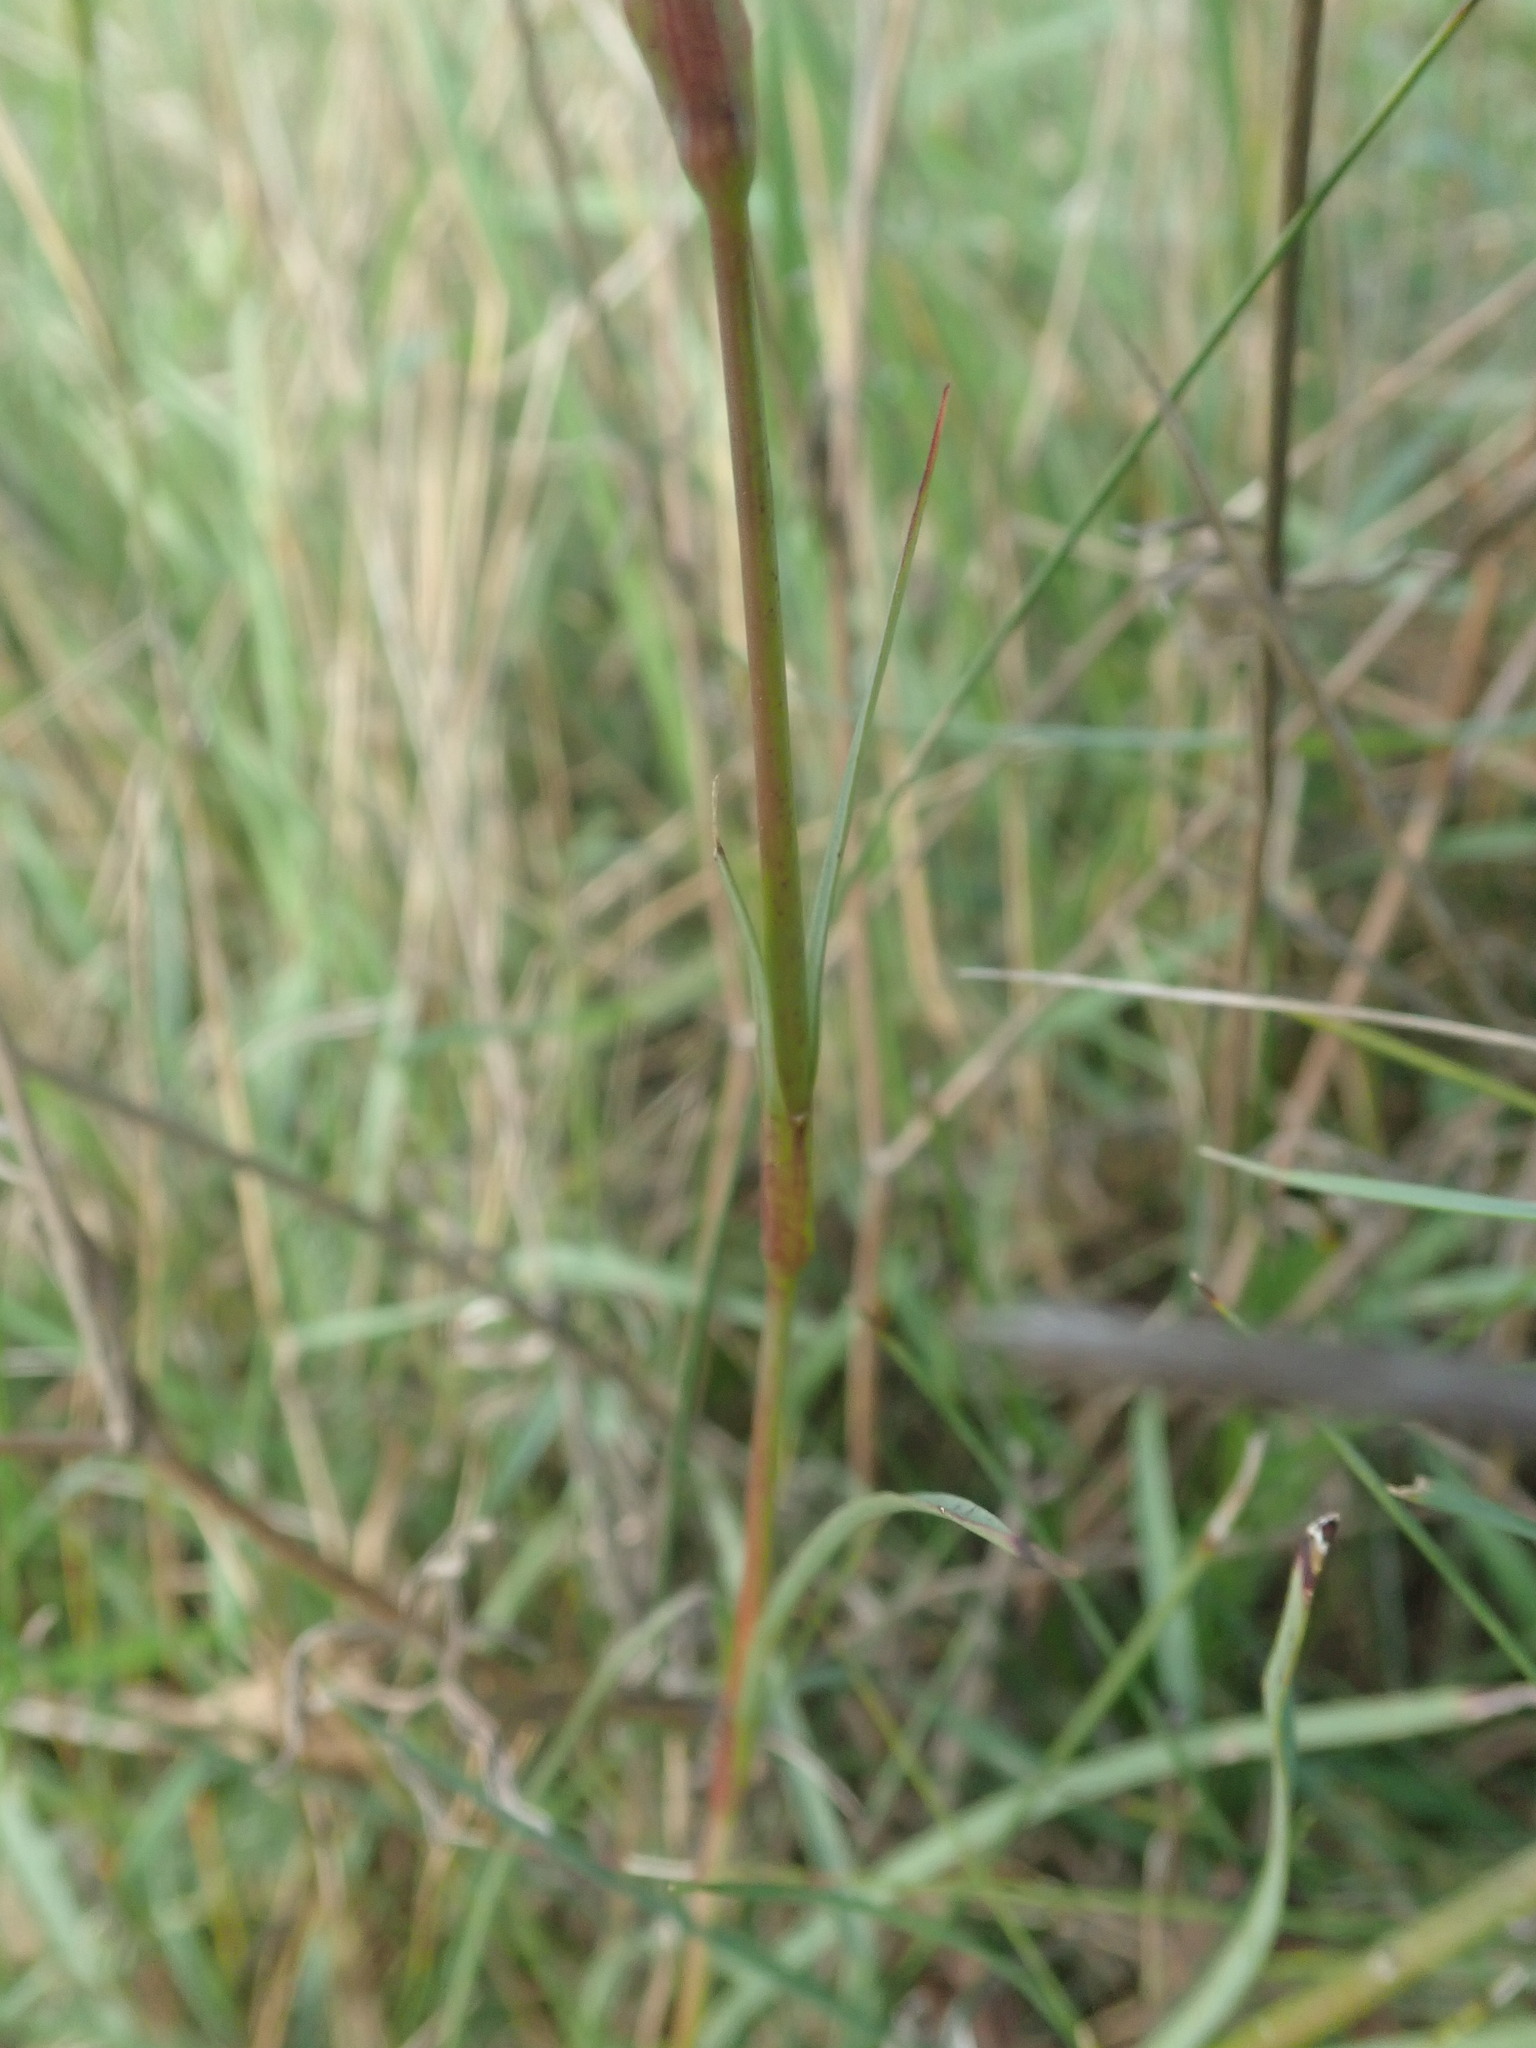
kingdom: Plantae
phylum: Tracheophyta
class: Magnoliopsida
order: Caryophyllales
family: Caryophyllaceae
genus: Dianthus
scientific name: Dianthus carthusianorum
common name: Carthusian pink
